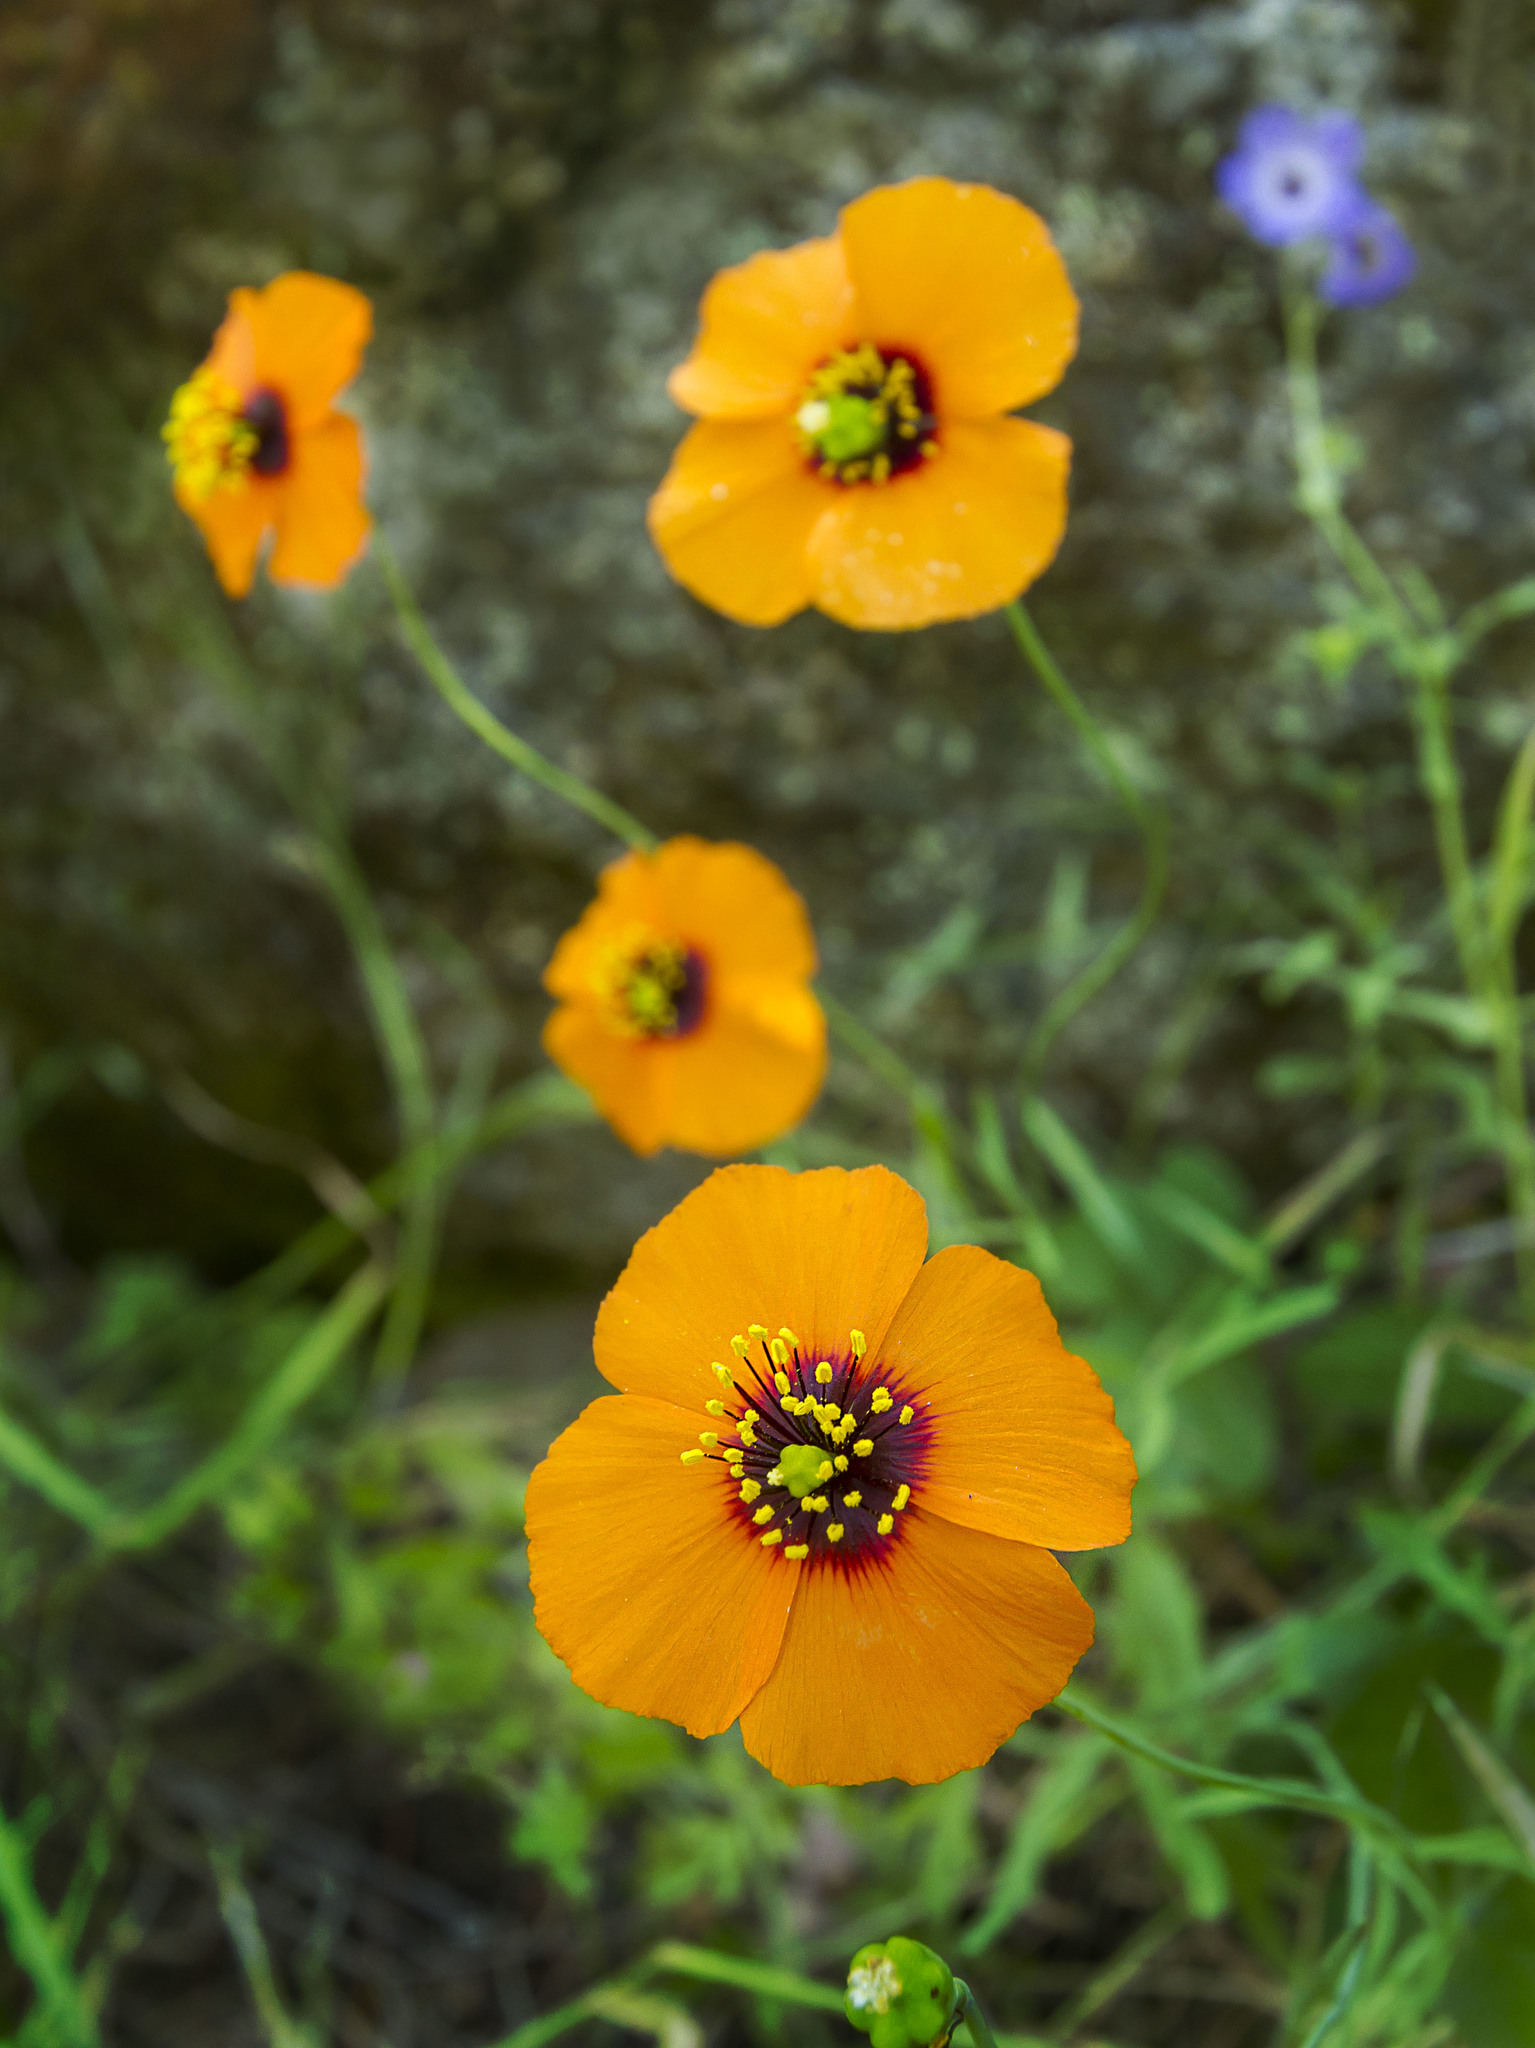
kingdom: Plantae
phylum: Tracheophyta
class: Magnoliopsida
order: Ranunculales
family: Papaveraceae
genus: Stylomecon
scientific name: Stylomecon heterophylla
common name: Flaming-poppy
